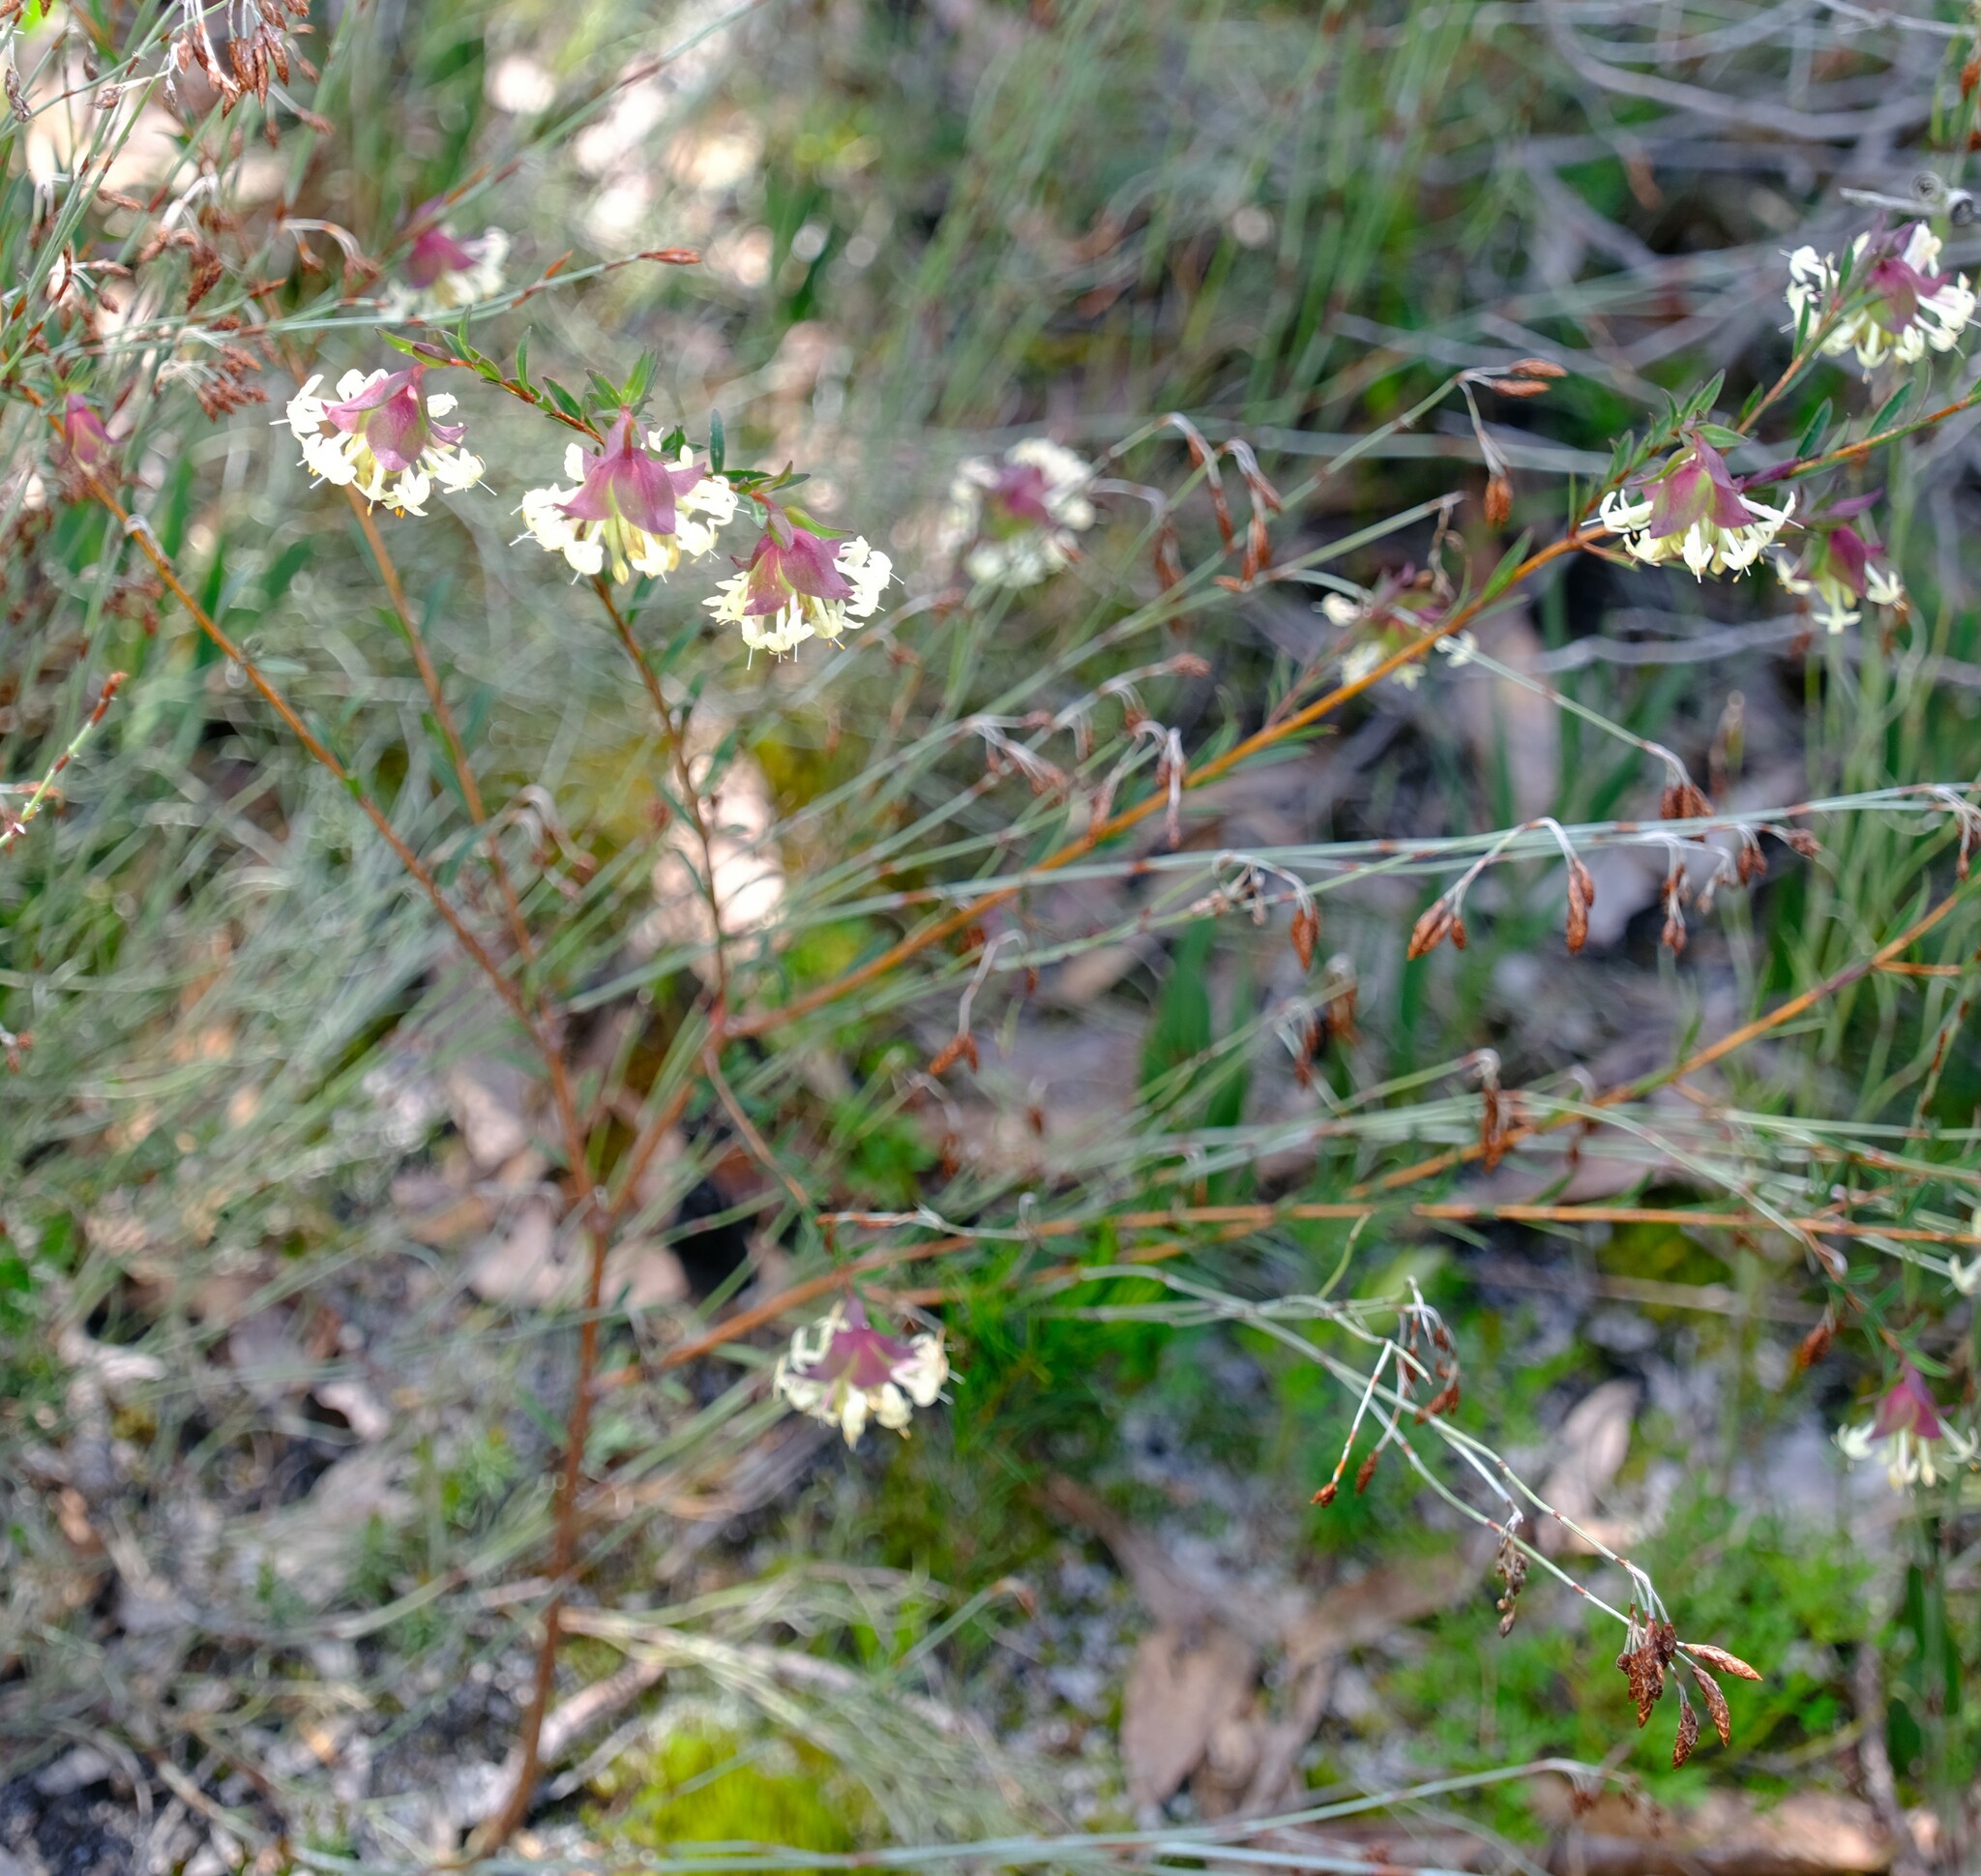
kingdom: Plantae
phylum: Tracheophyta
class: Magnoliopsida
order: Malvales
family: Thymelaeaceae
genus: Pimelea
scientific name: Pimelea linifolia
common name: Queen-of-the-bush
